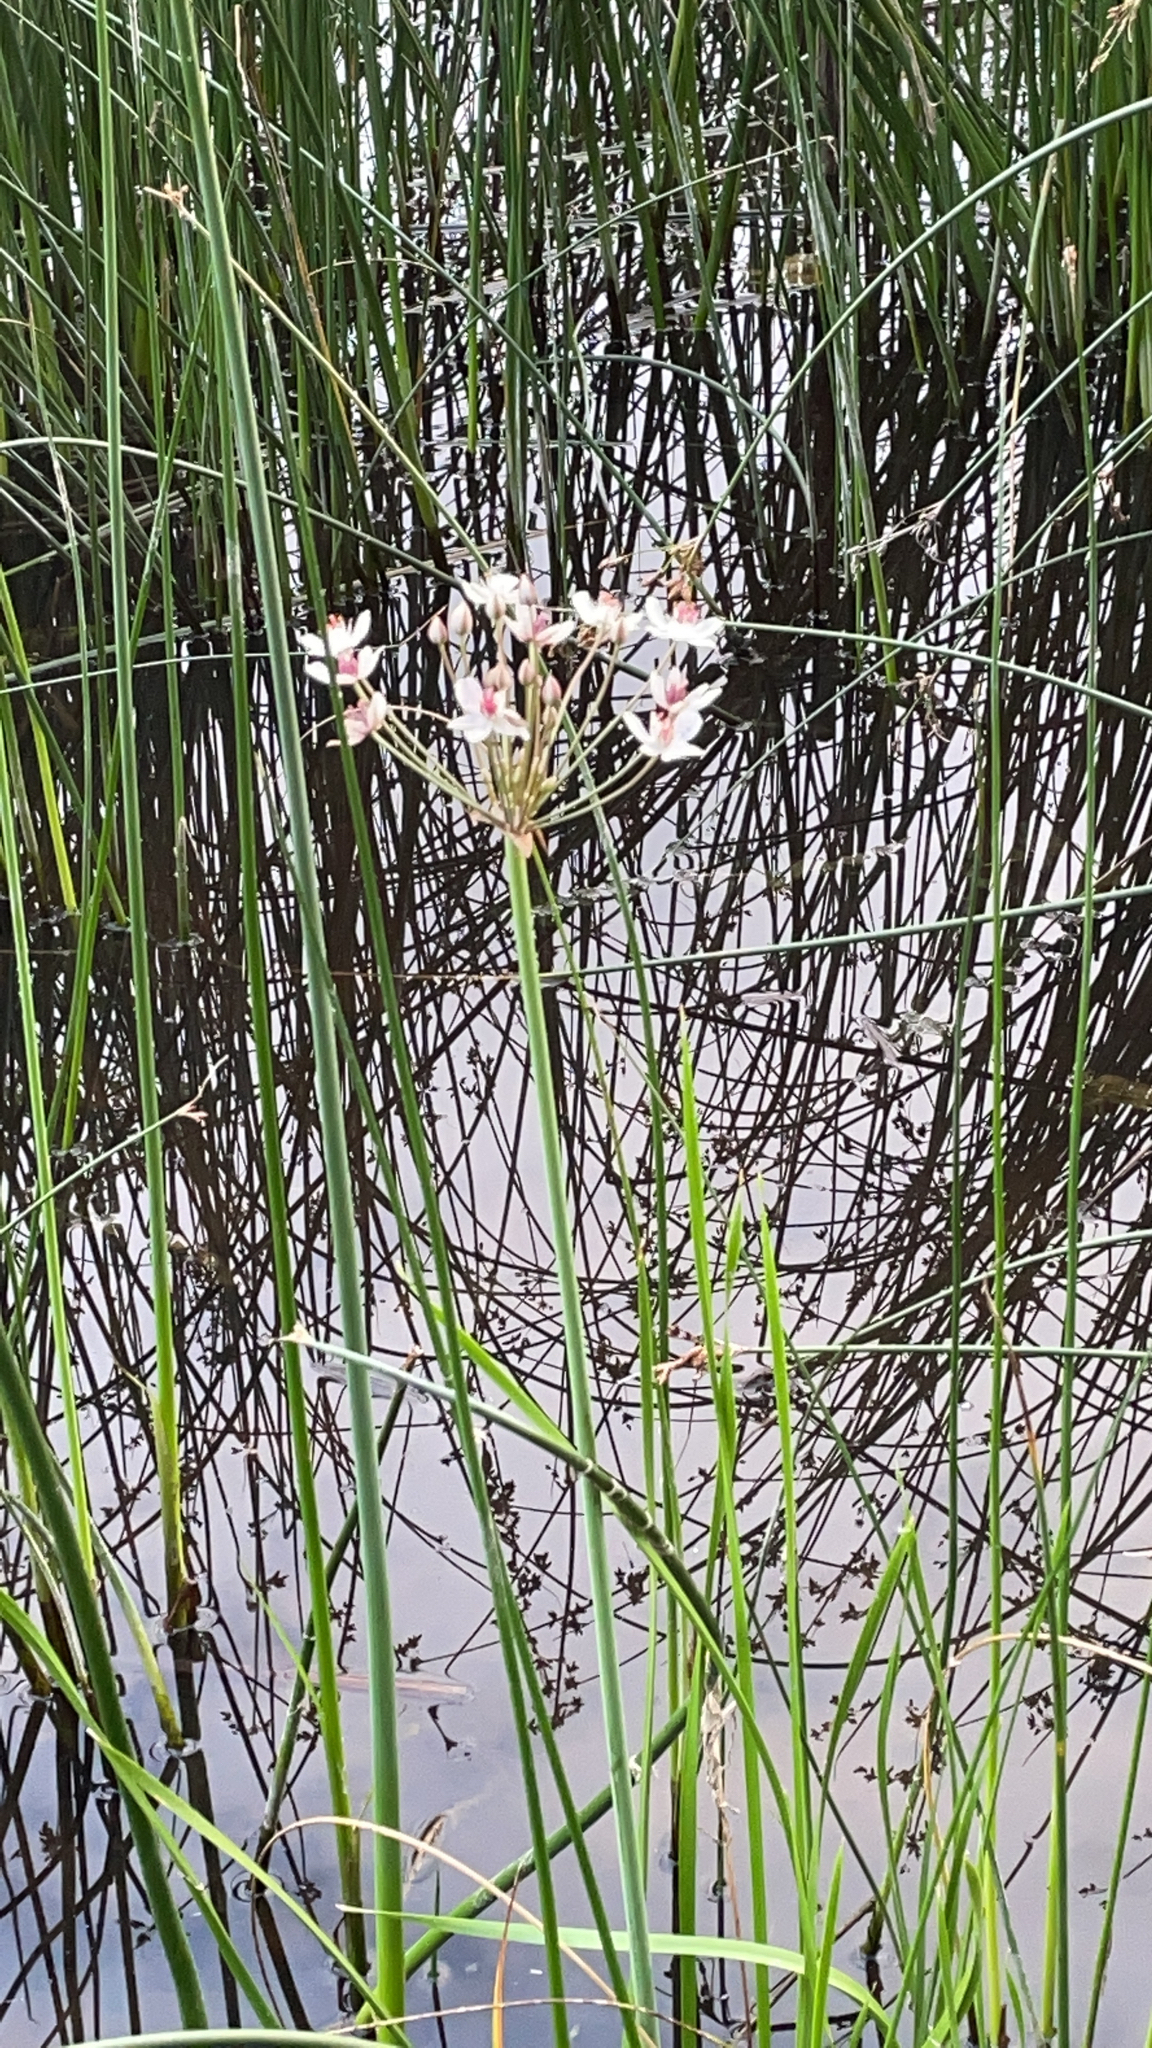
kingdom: Plantae
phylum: Tracheophyta
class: Liliopsida
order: Alismatales
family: Butomaceae
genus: Butomus
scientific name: Butomus umbellatus
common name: Flowering-rush
